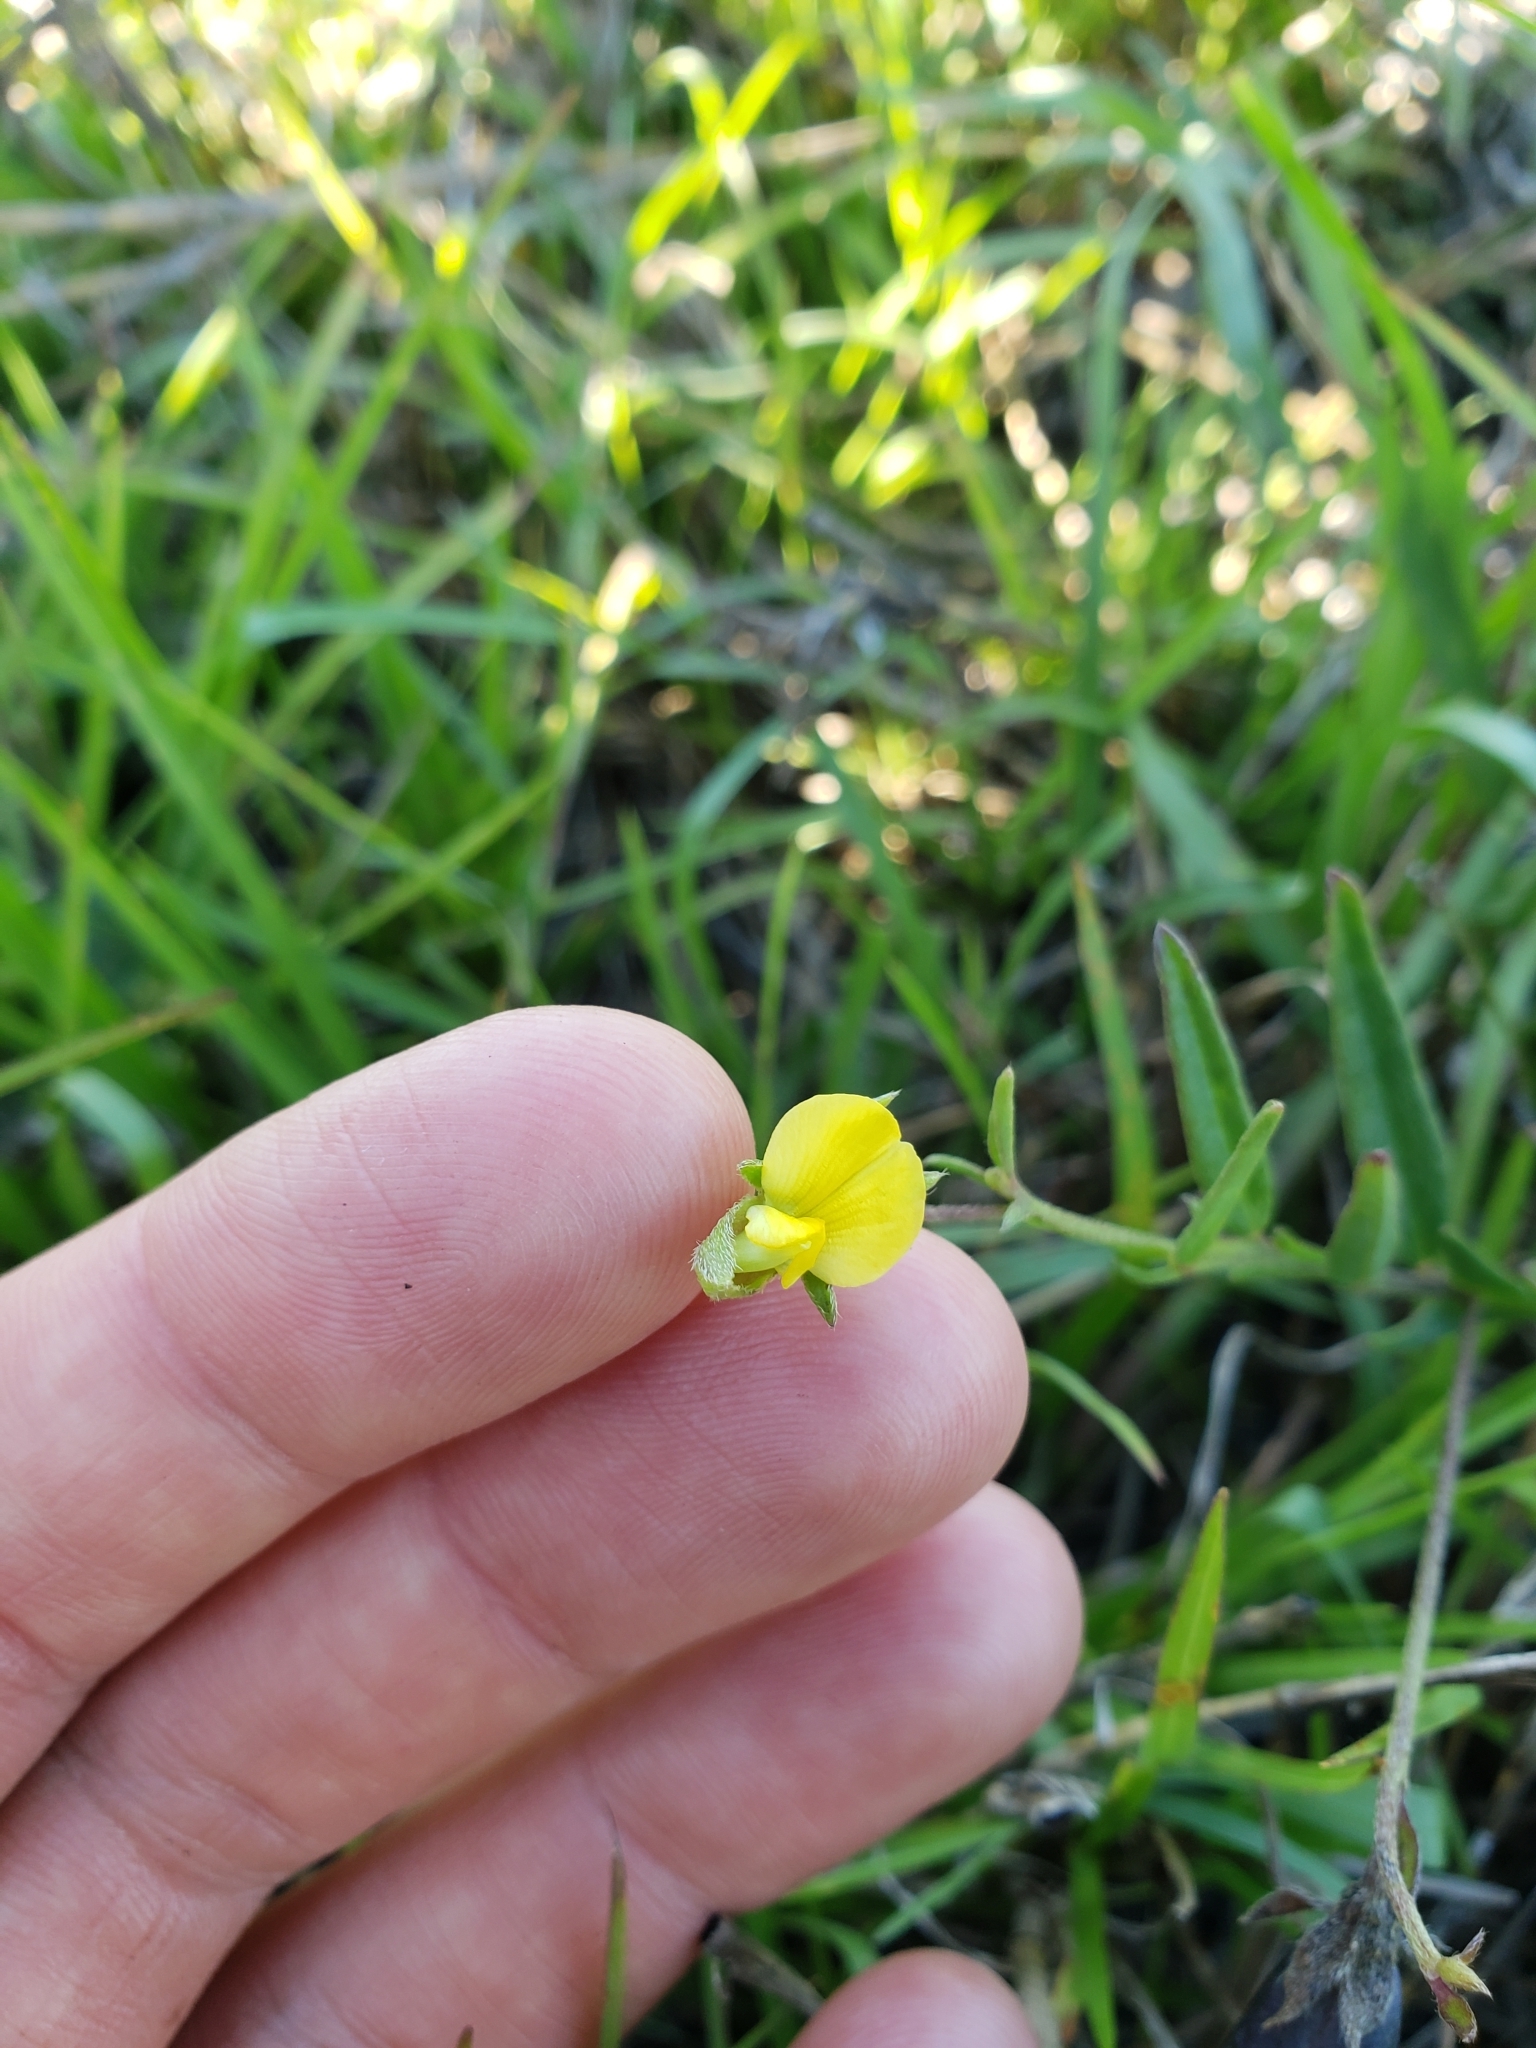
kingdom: Plantae
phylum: Tracheophyta
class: Magnoliopsida
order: Fabales
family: Fabaceae
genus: Crotalaria
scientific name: Crotalaria rotundifolia
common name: Prostrate rattlebox
